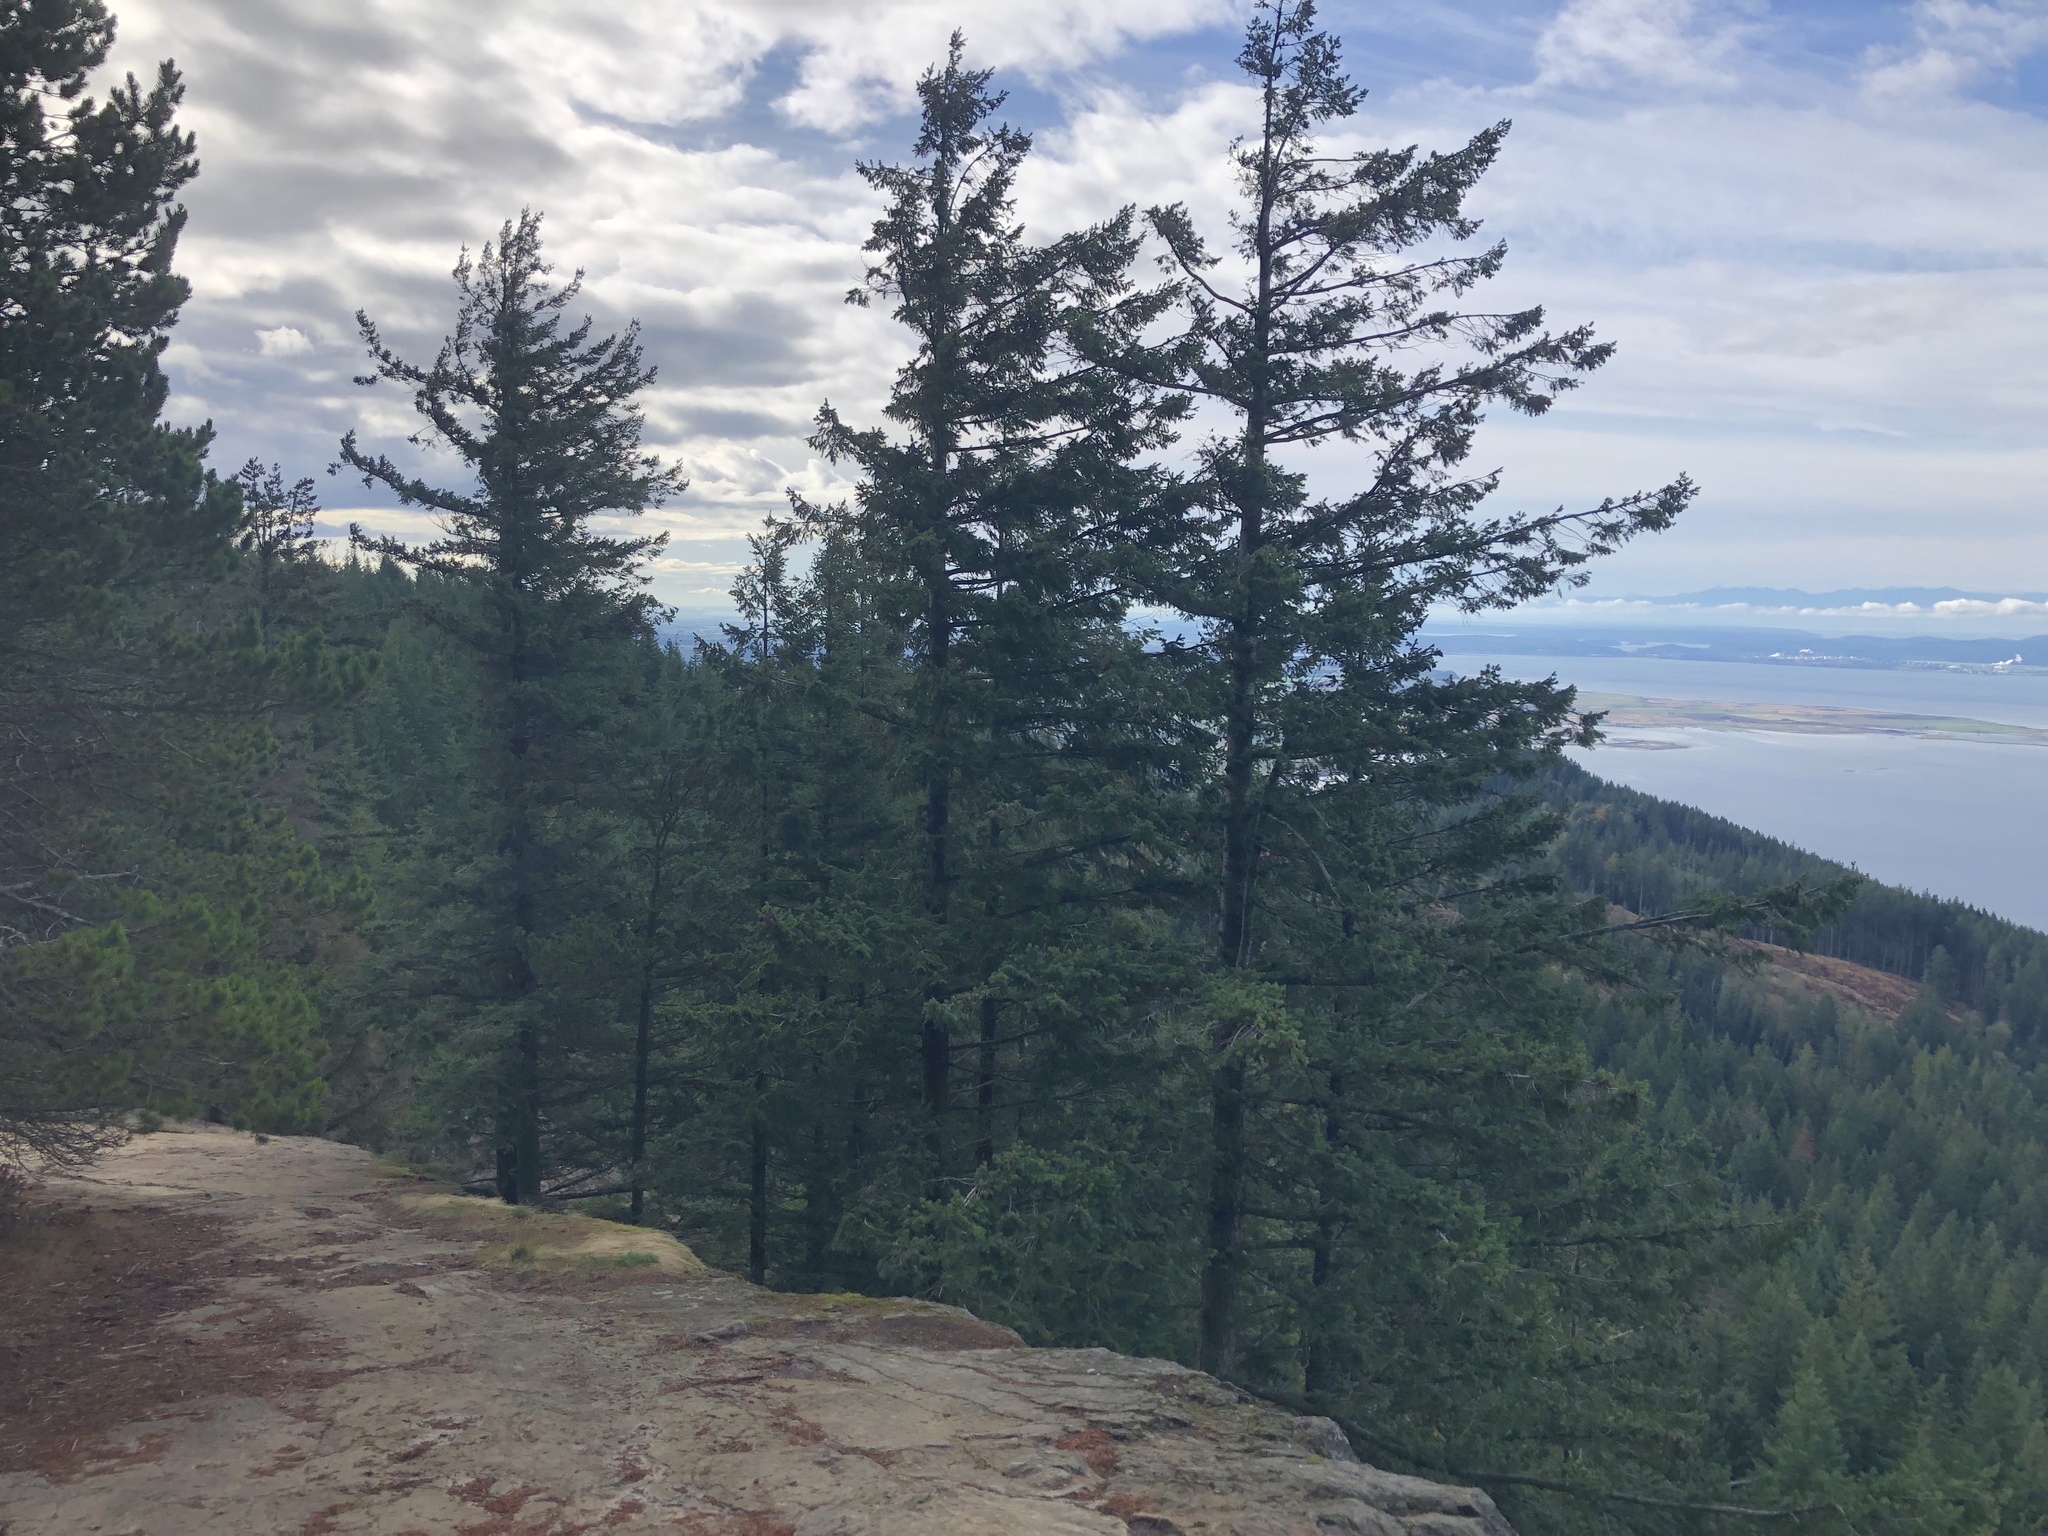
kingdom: Plantae
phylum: Tracheophyta
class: Pinopsida
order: Pinales
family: Pinaceae
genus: Pseudotsuga
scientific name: Pseudotsuga menziesii
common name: Douglas fir
